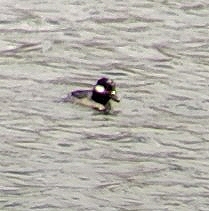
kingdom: Animalia
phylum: Chordata
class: Aves
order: Anseriformes
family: Anatidae
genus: Bucephala
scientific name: Bucephala albeola
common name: Bufflehead
